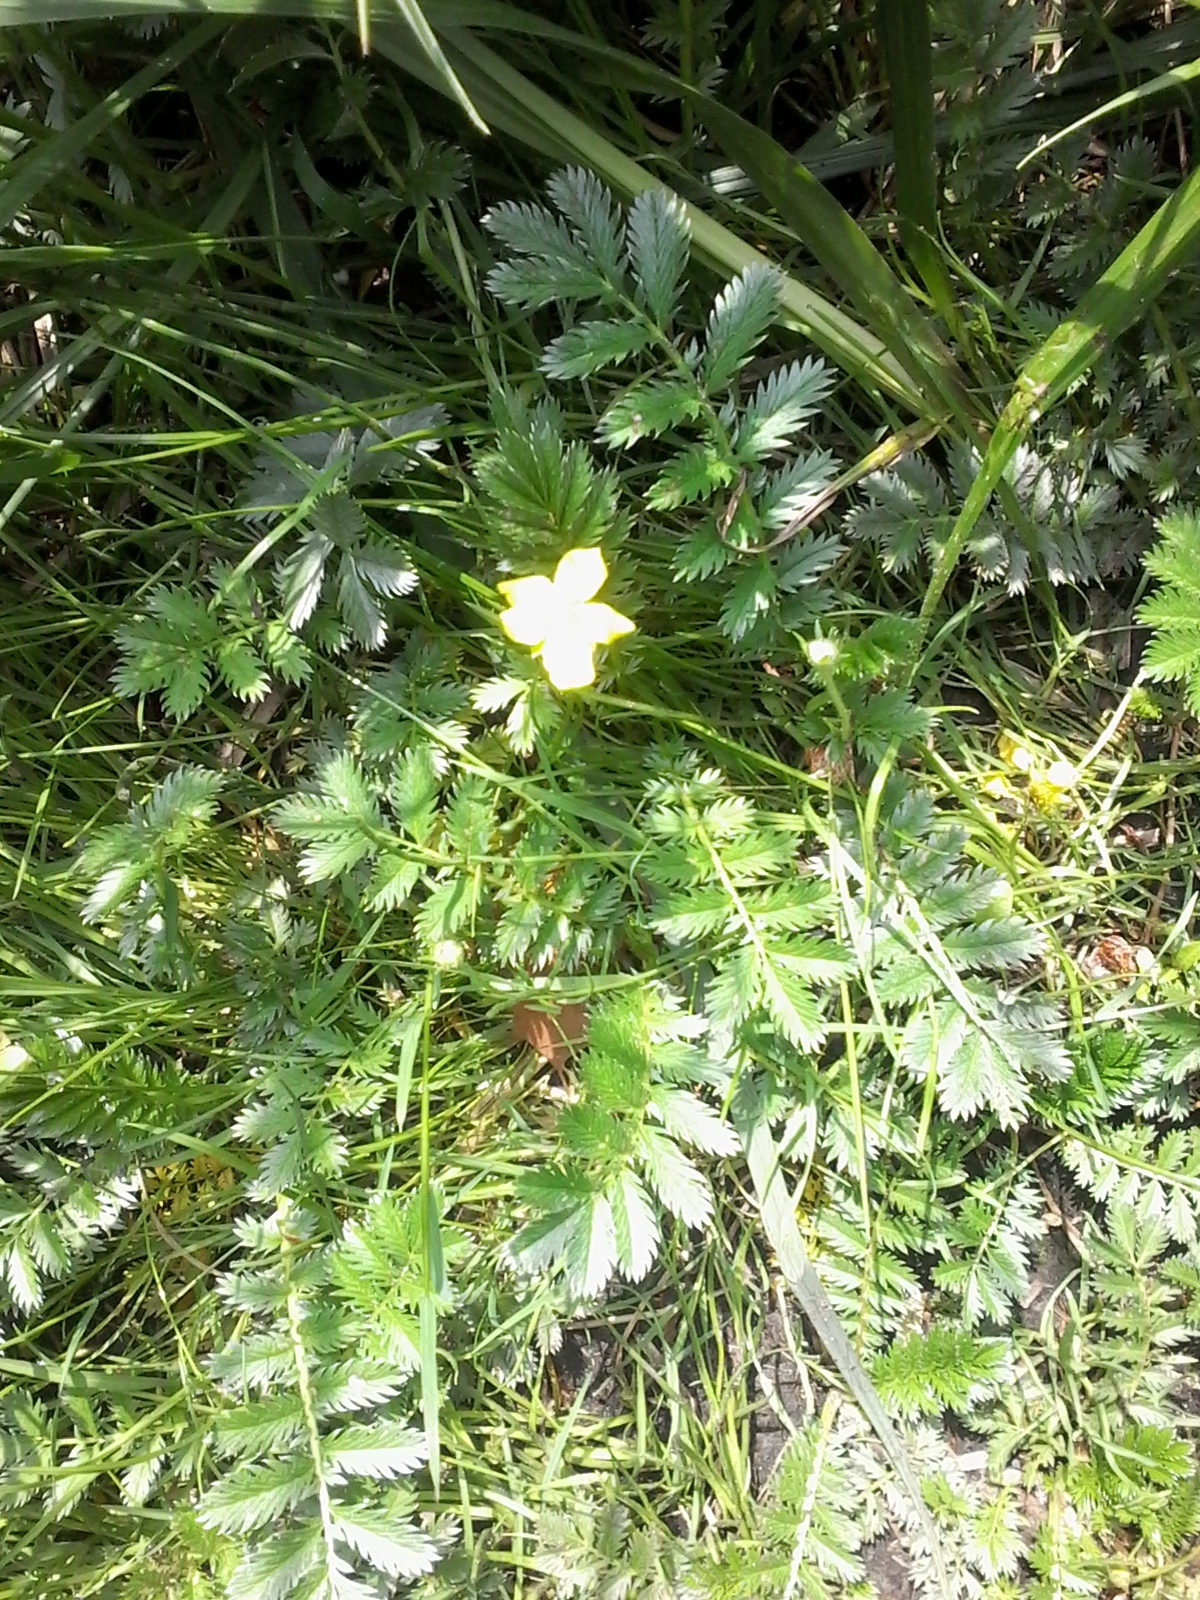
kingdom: Plantae
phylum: Tracheophyta
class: Magnoliopsida
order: Rosales
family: Rosaceae
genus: Argentina
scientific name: Argentina anserina
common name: Common silverweed
